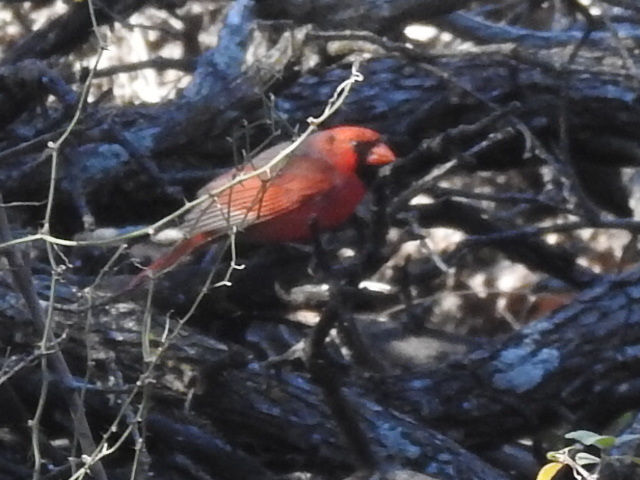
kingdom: Animalia
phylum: Chordata
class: Aves
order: Passeriformes
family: Cardinalidae
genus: Cardinalis
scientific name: Cardinalis cardinalis
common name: Northern cardinal
